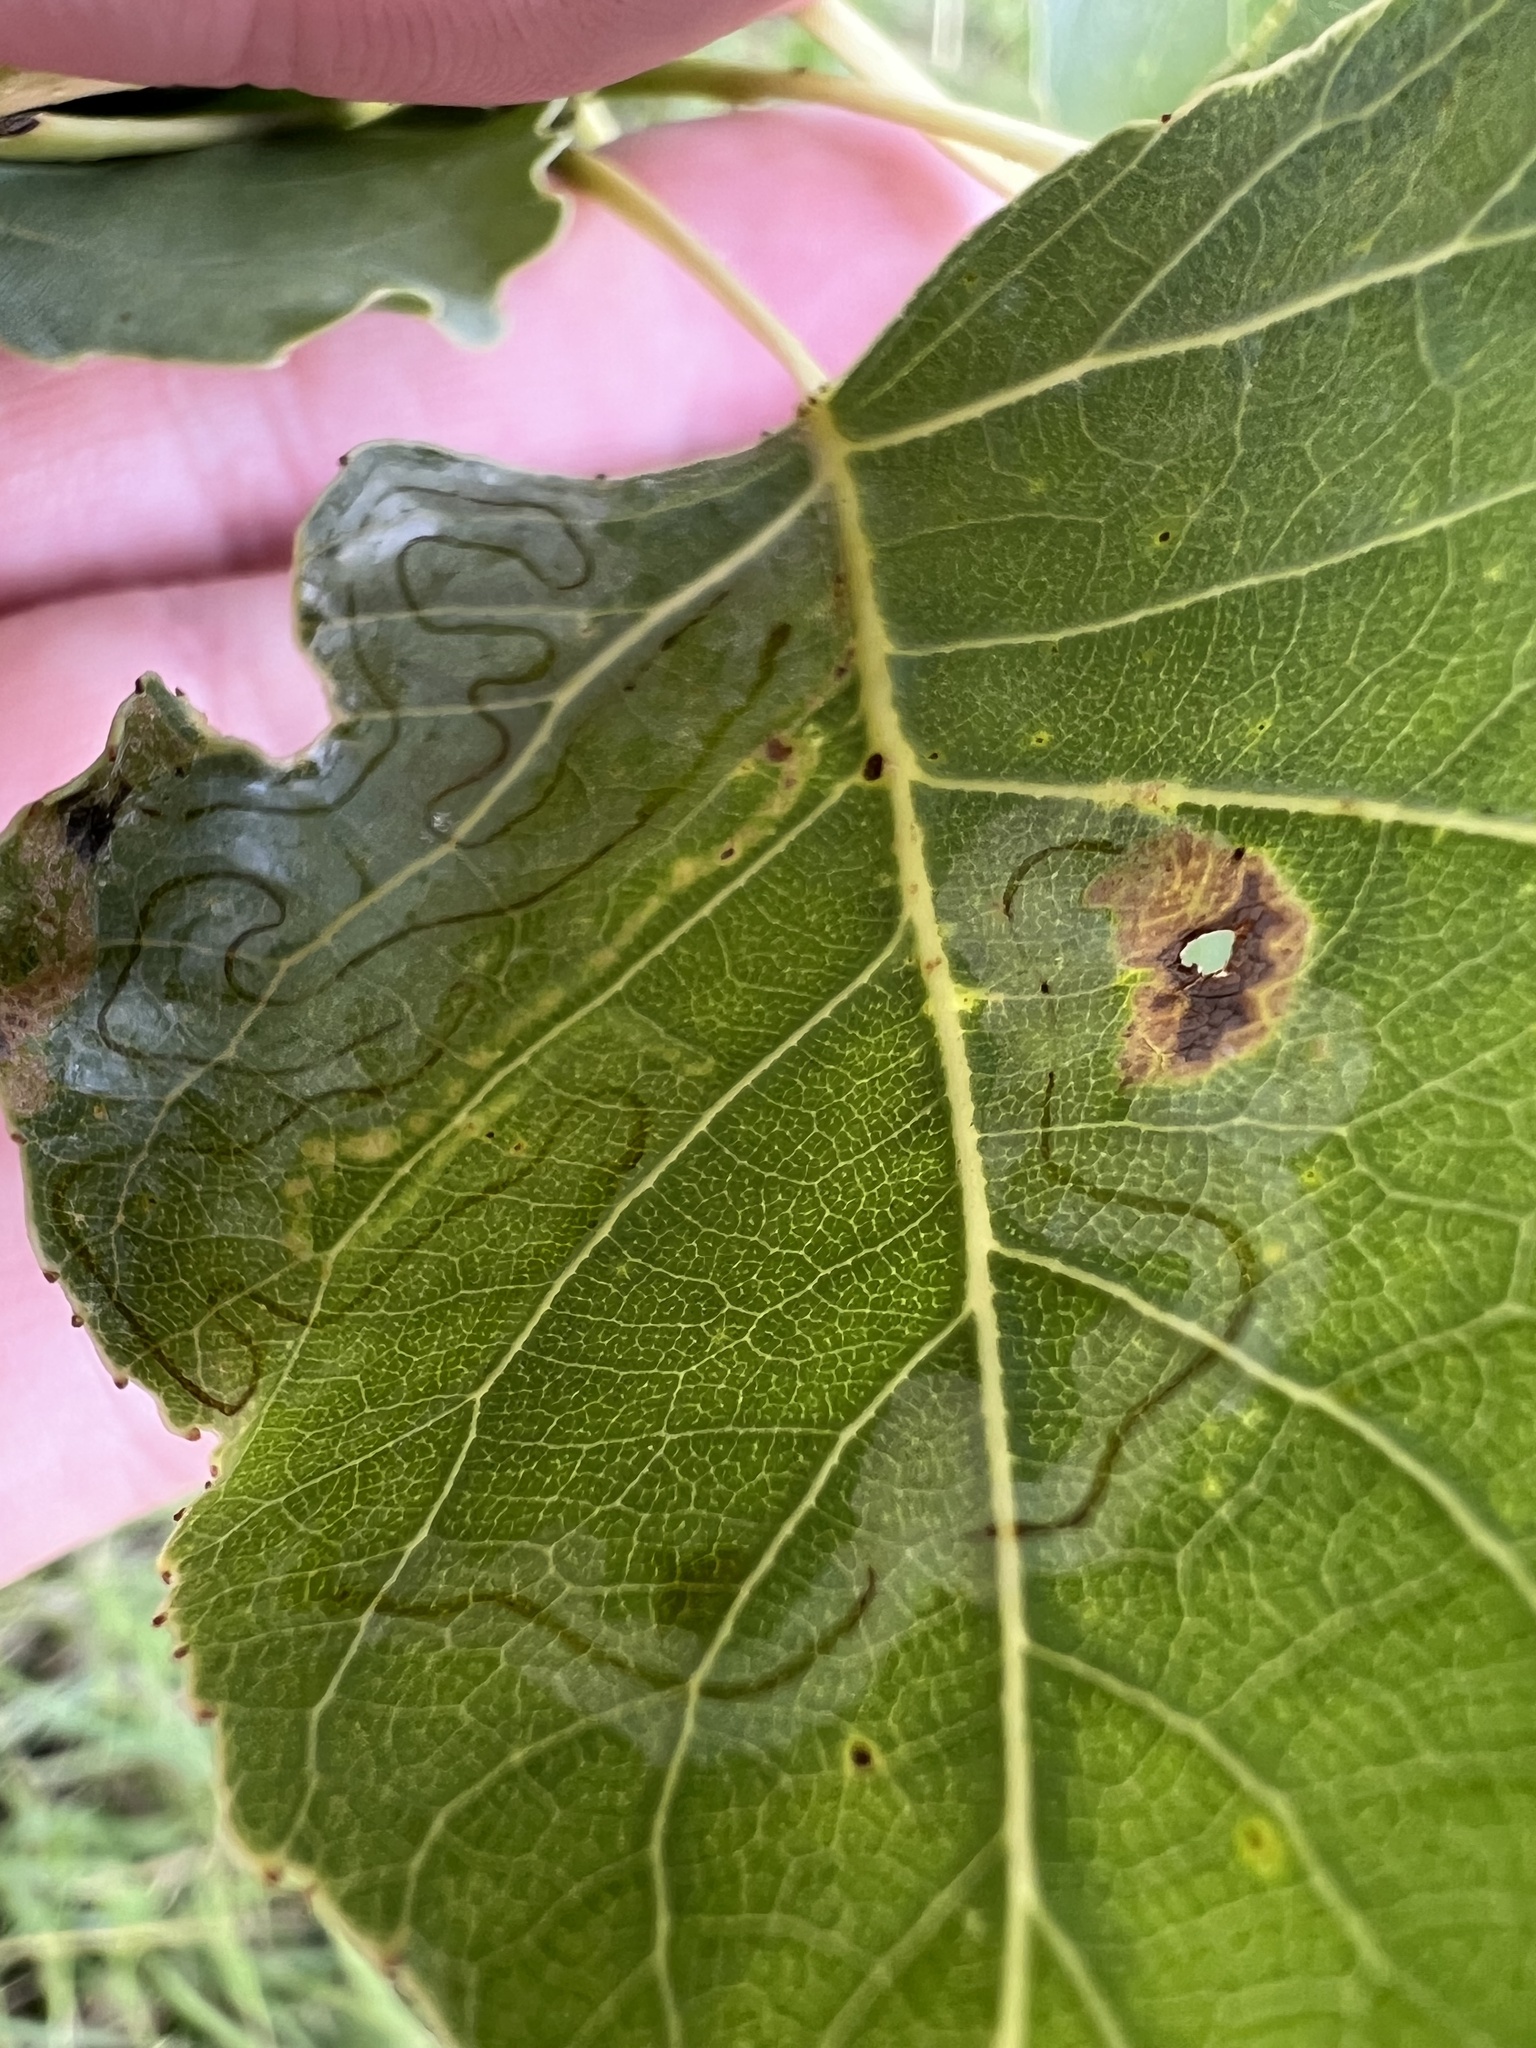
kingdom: Animalia
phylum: Arthropoda
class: Insecta
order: Lepidoptera
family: Gracillariidae
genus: Phyllocnistis
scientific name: Phyllocnistis populiella
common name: Aspen serpentine leafminer moth
